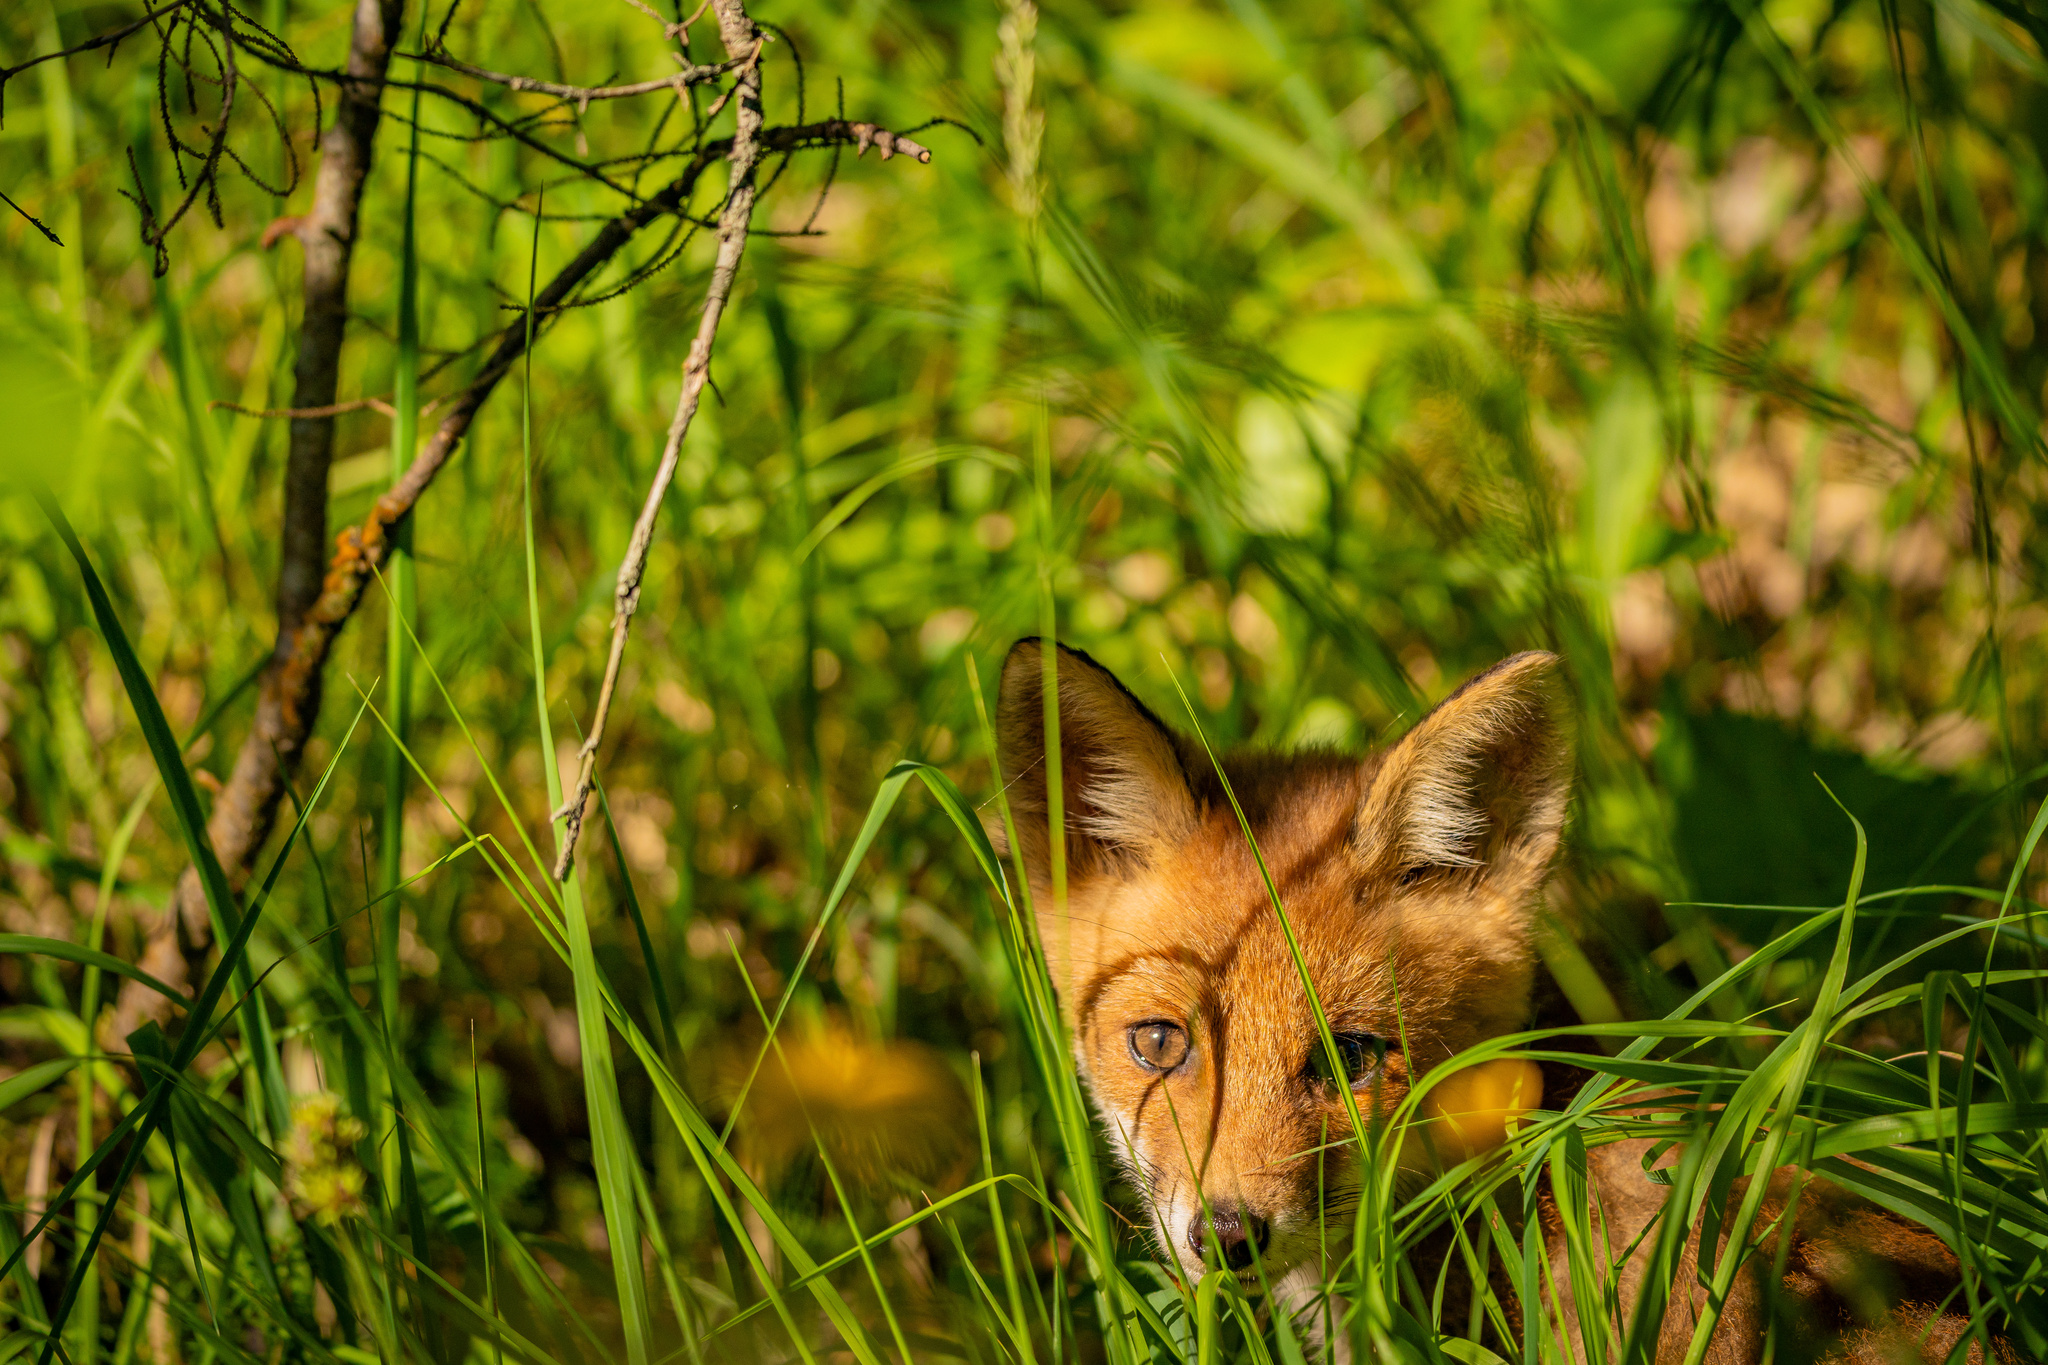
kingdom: Animalia
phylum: Chordata
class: Mammalia
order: Carnivora
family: Canidae
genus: Vulpes
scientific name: Vulpes vulpes
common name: Red fox
